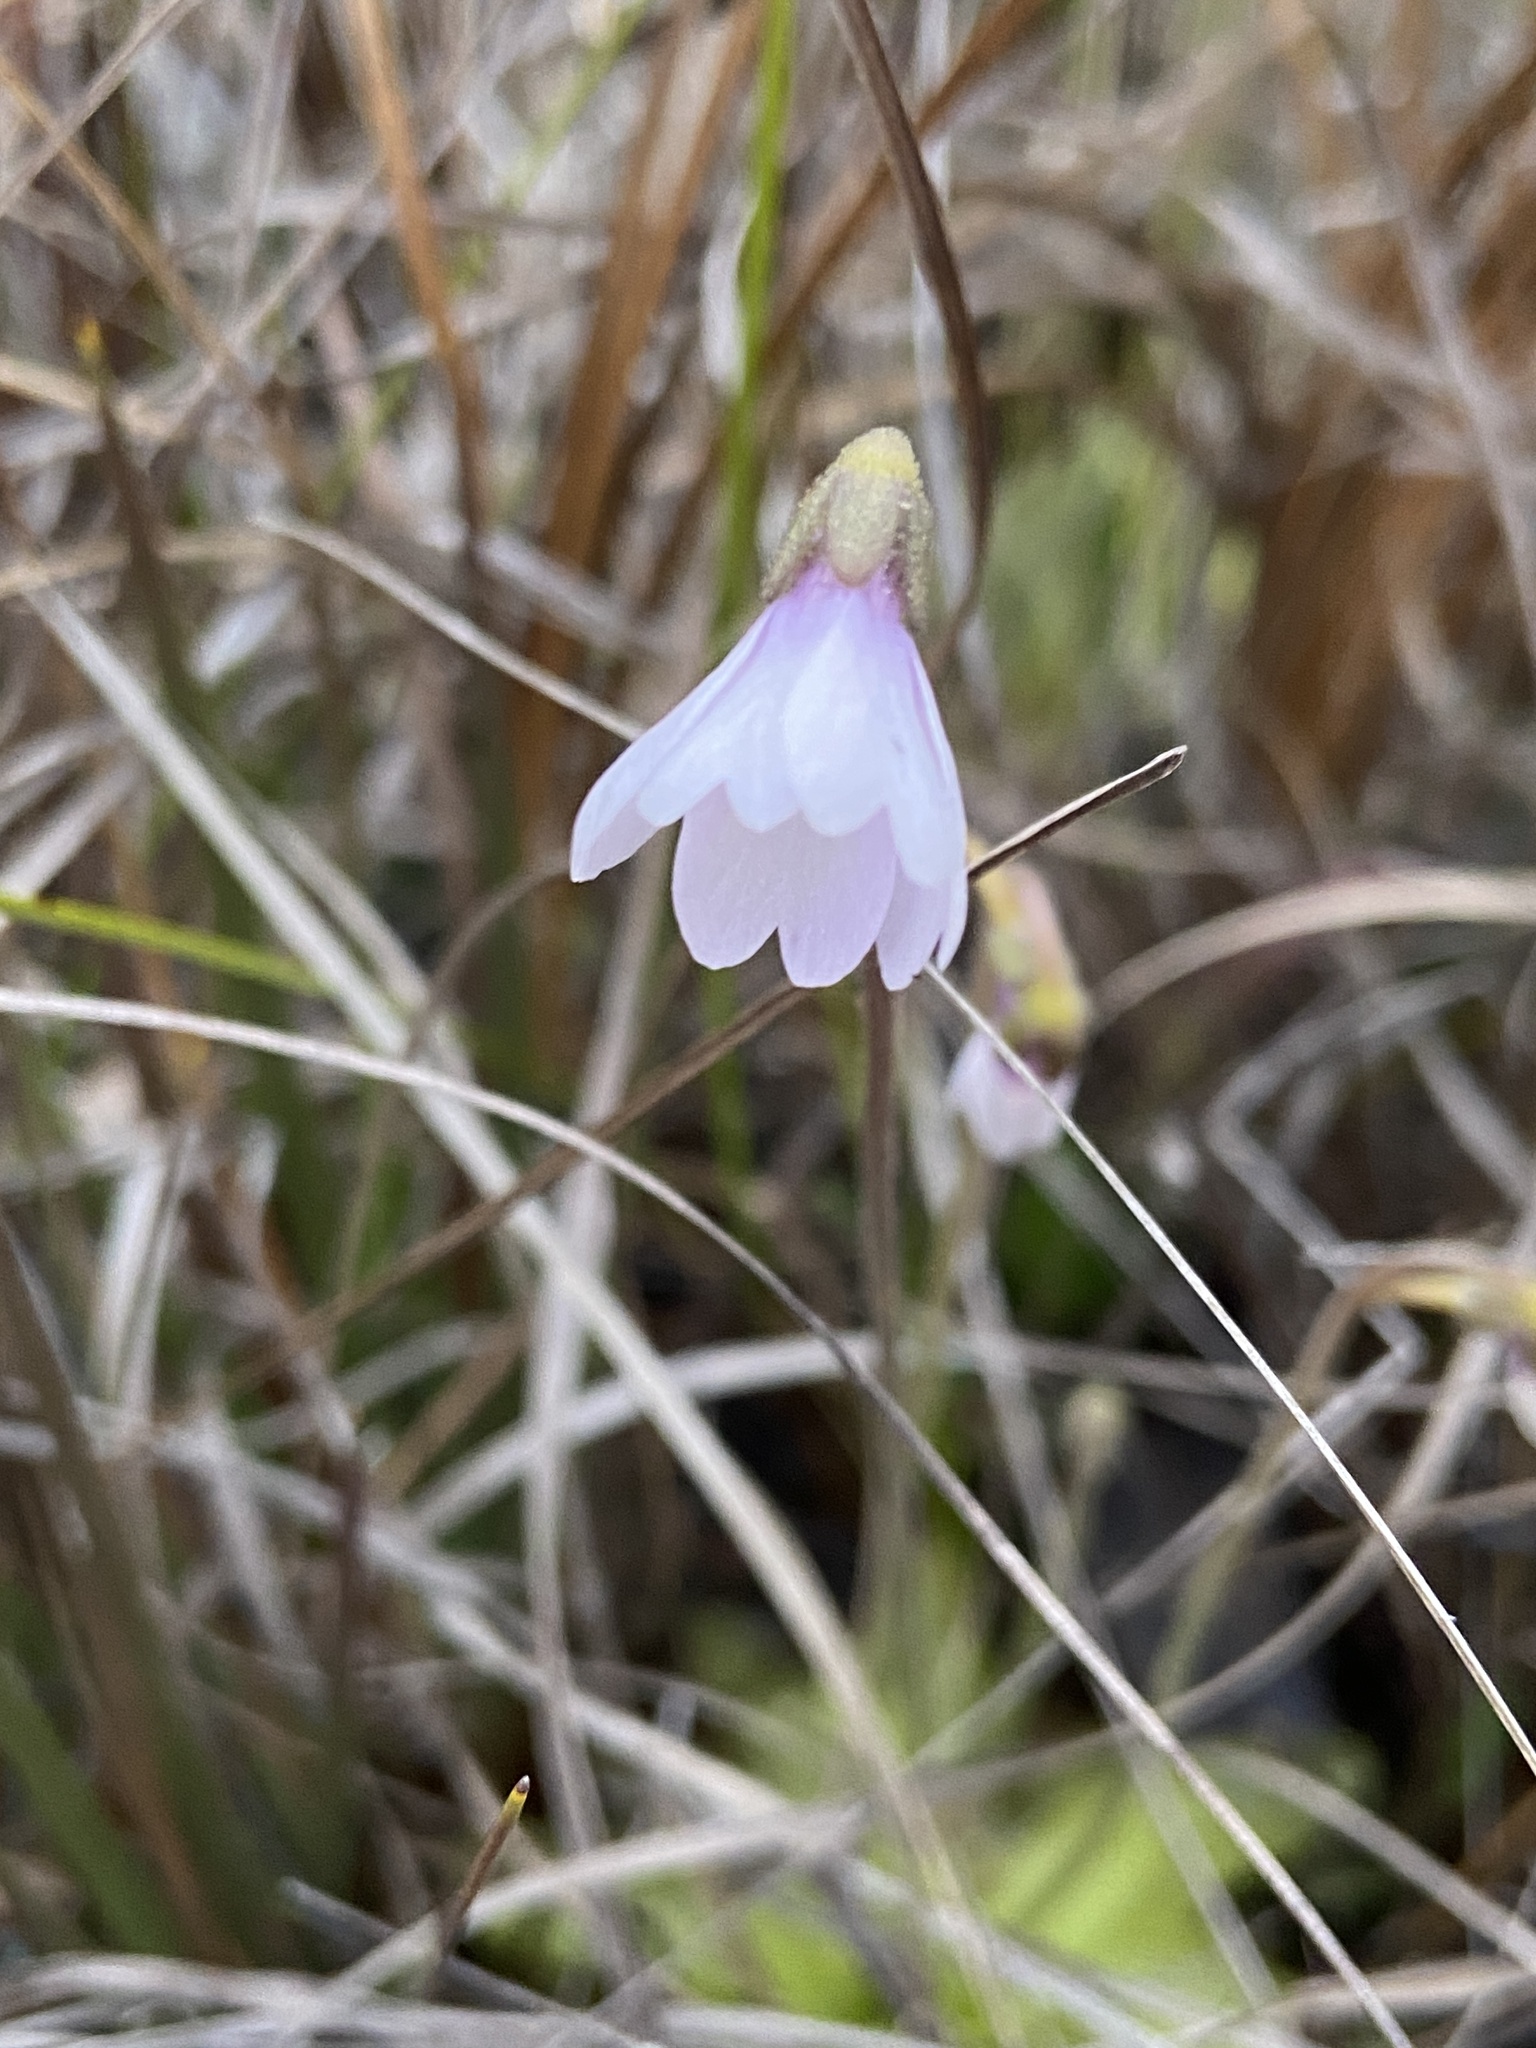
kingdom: Plantae
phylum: Tracheophyta
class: Magnoliopsida
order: Lamiales
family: Lentibulariaceae
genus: Pinguicula
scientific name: Pinguicula ionantha
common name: Godfrey's butterwort
